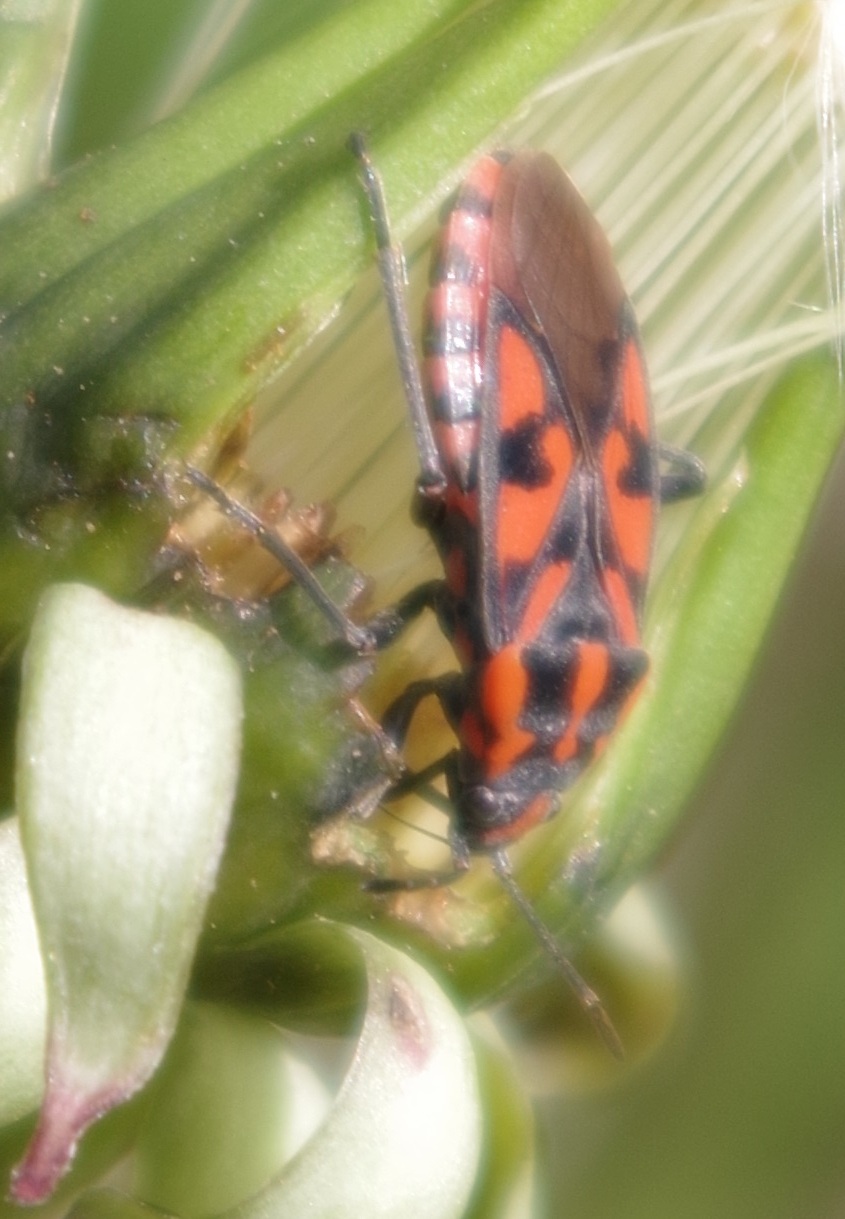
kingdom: Animalia
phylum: Arthropoda
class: Insecta
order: Hemiptera
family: Lygaeidae
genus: Spilostethus
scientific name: Spilostethus saxatilis
